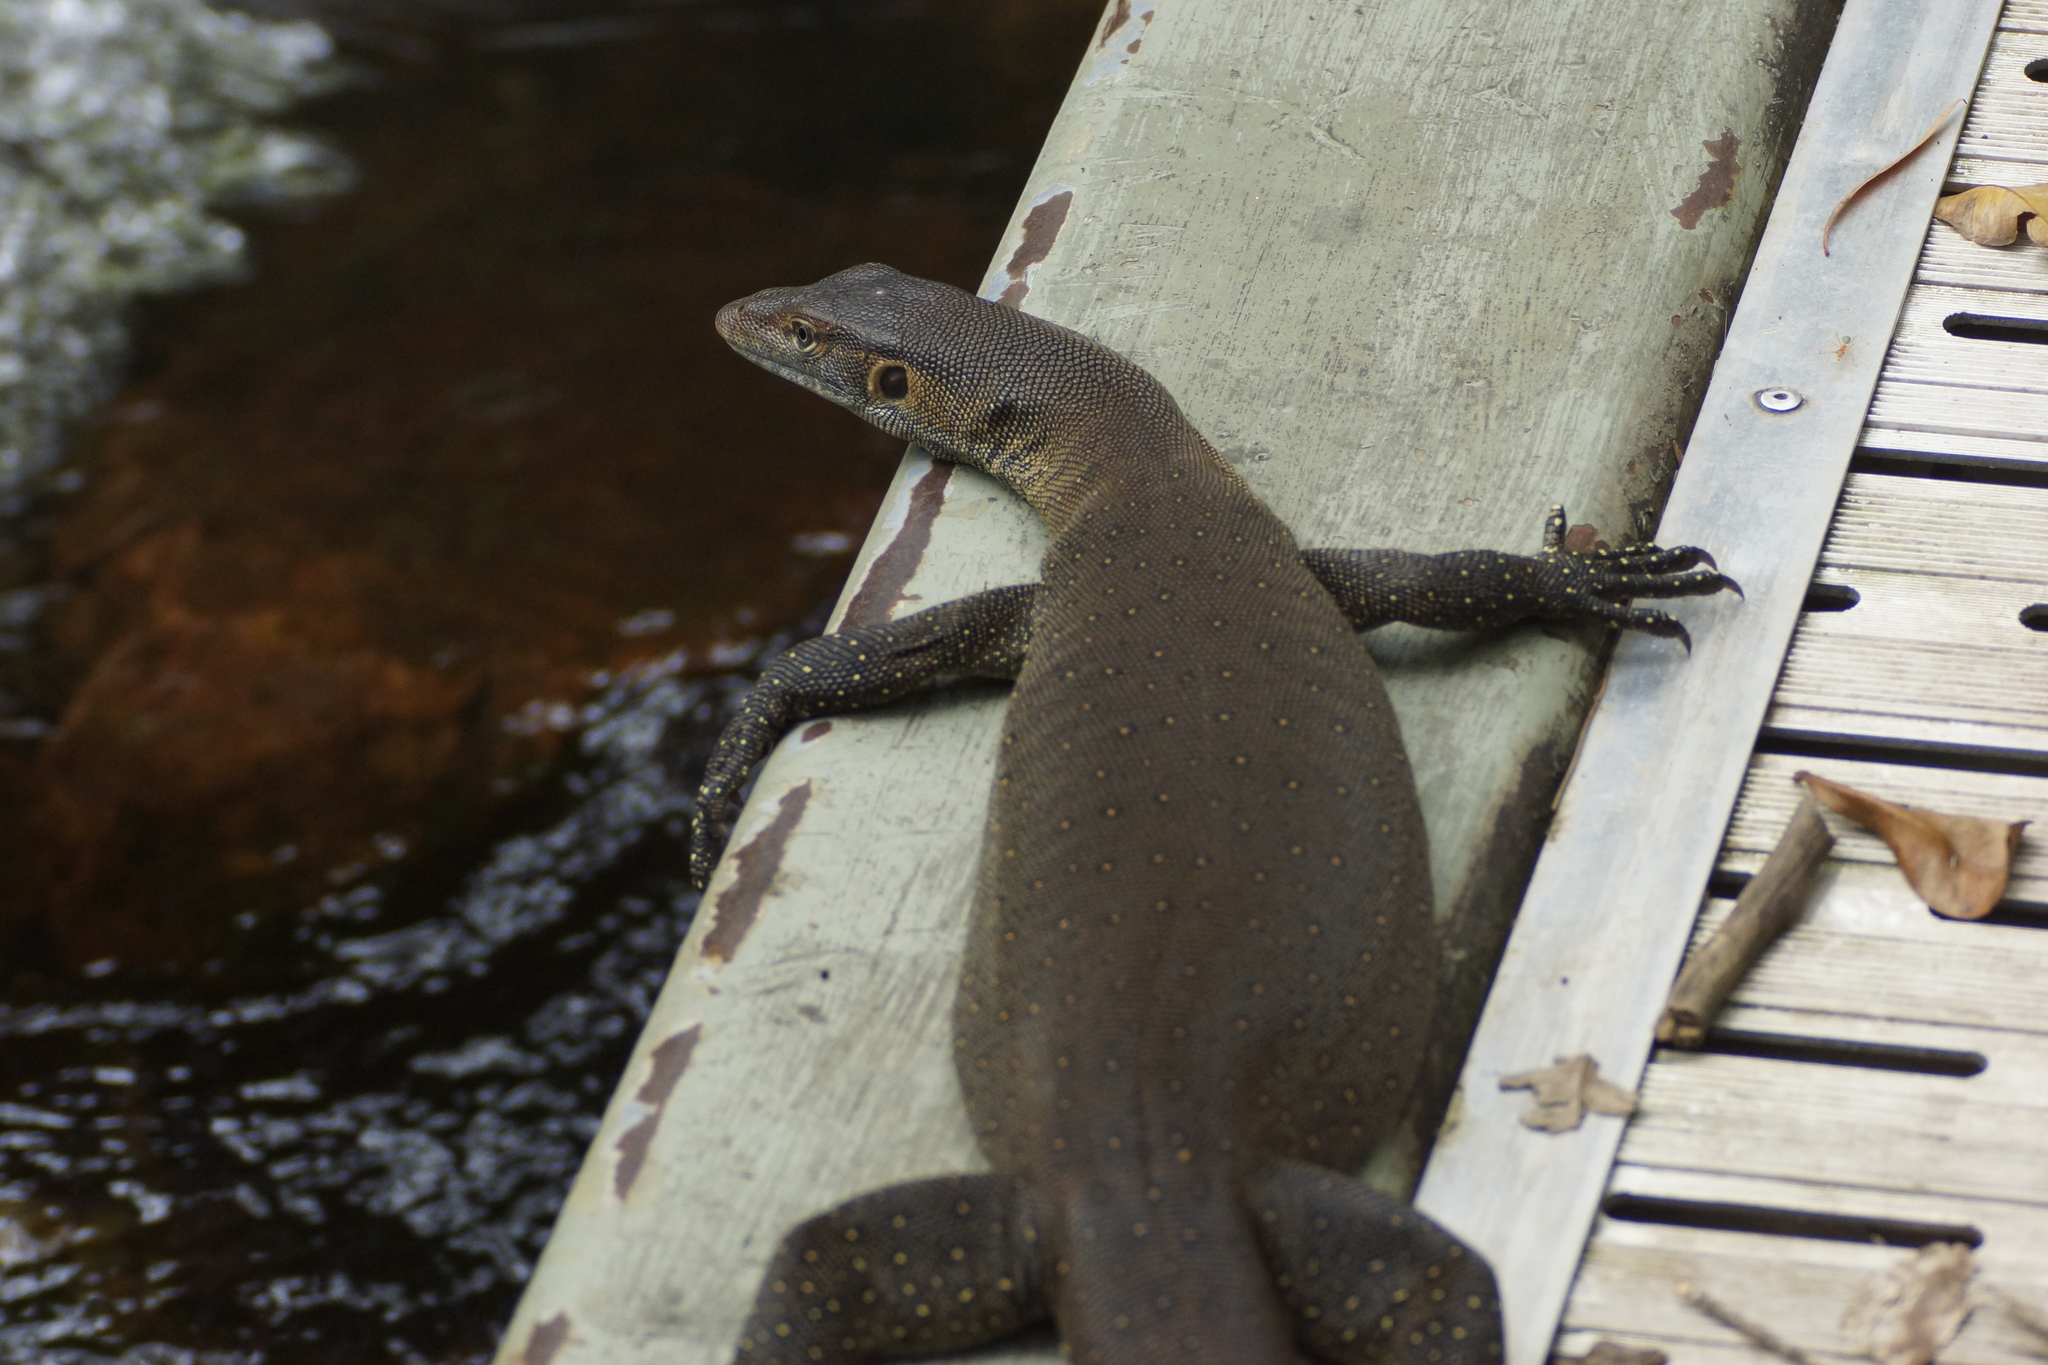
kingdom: Animalia
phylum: Chordata
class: Squamata
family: Varanidae
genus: Varanus
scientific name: Varanus mertensi
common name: Mertens's water monitor
